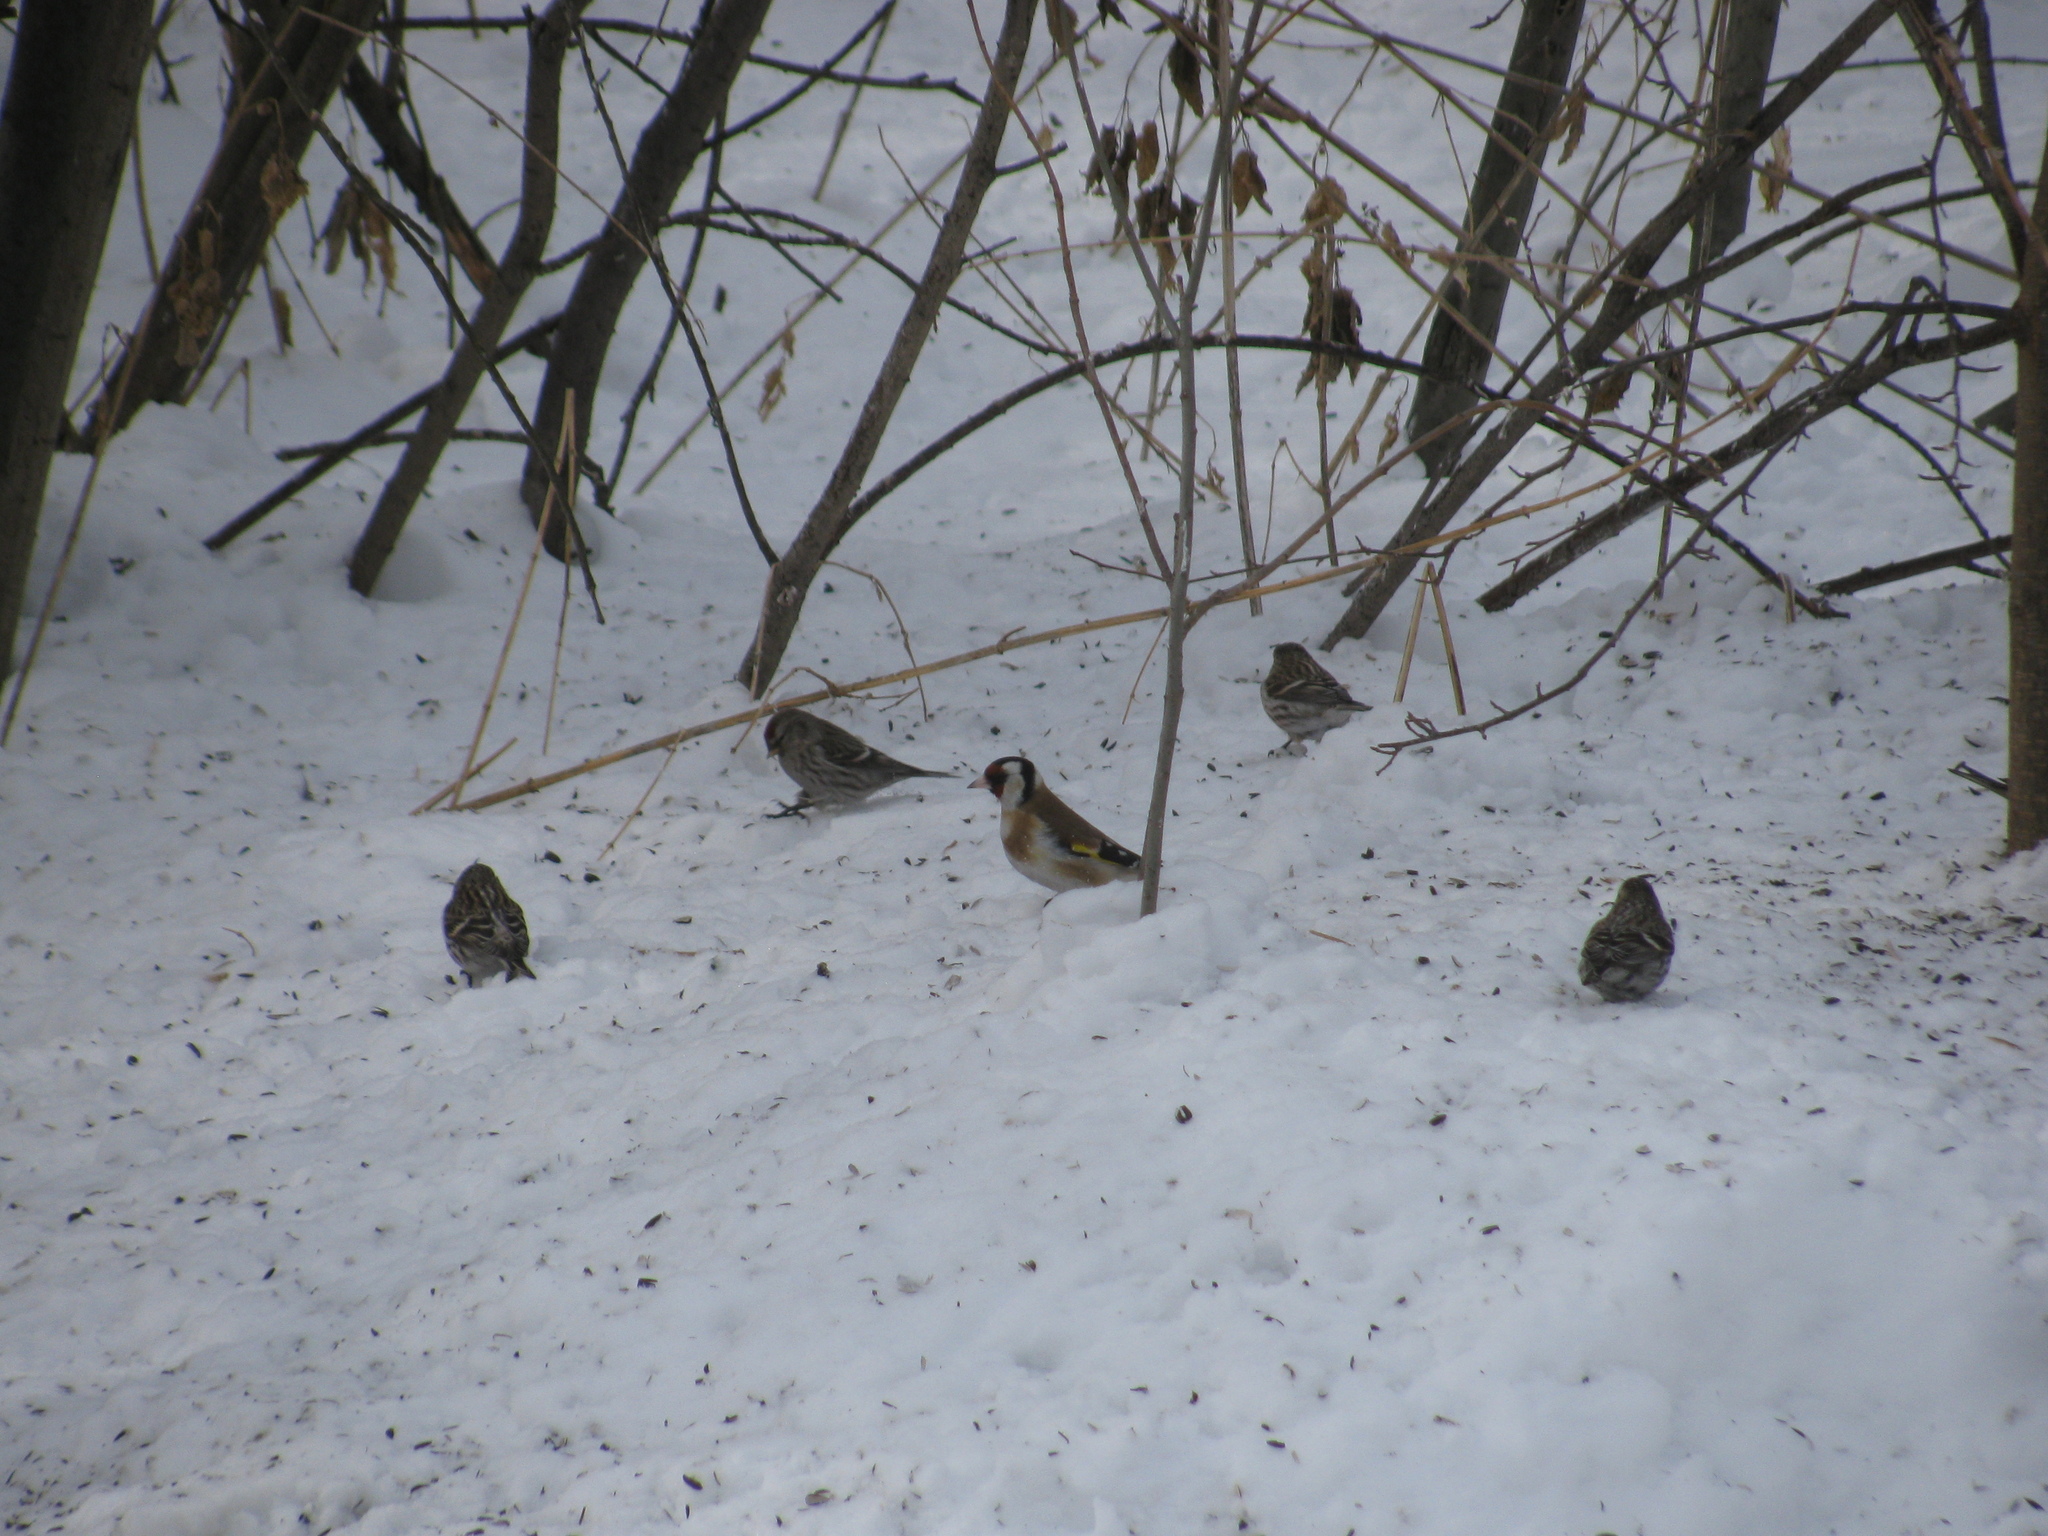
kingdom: Animalia
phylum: Chordata
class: Aves
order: Passeriformes
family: Fringillidae
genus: Carduelis
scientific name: Carduelis carduelis
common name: European goldfinch
